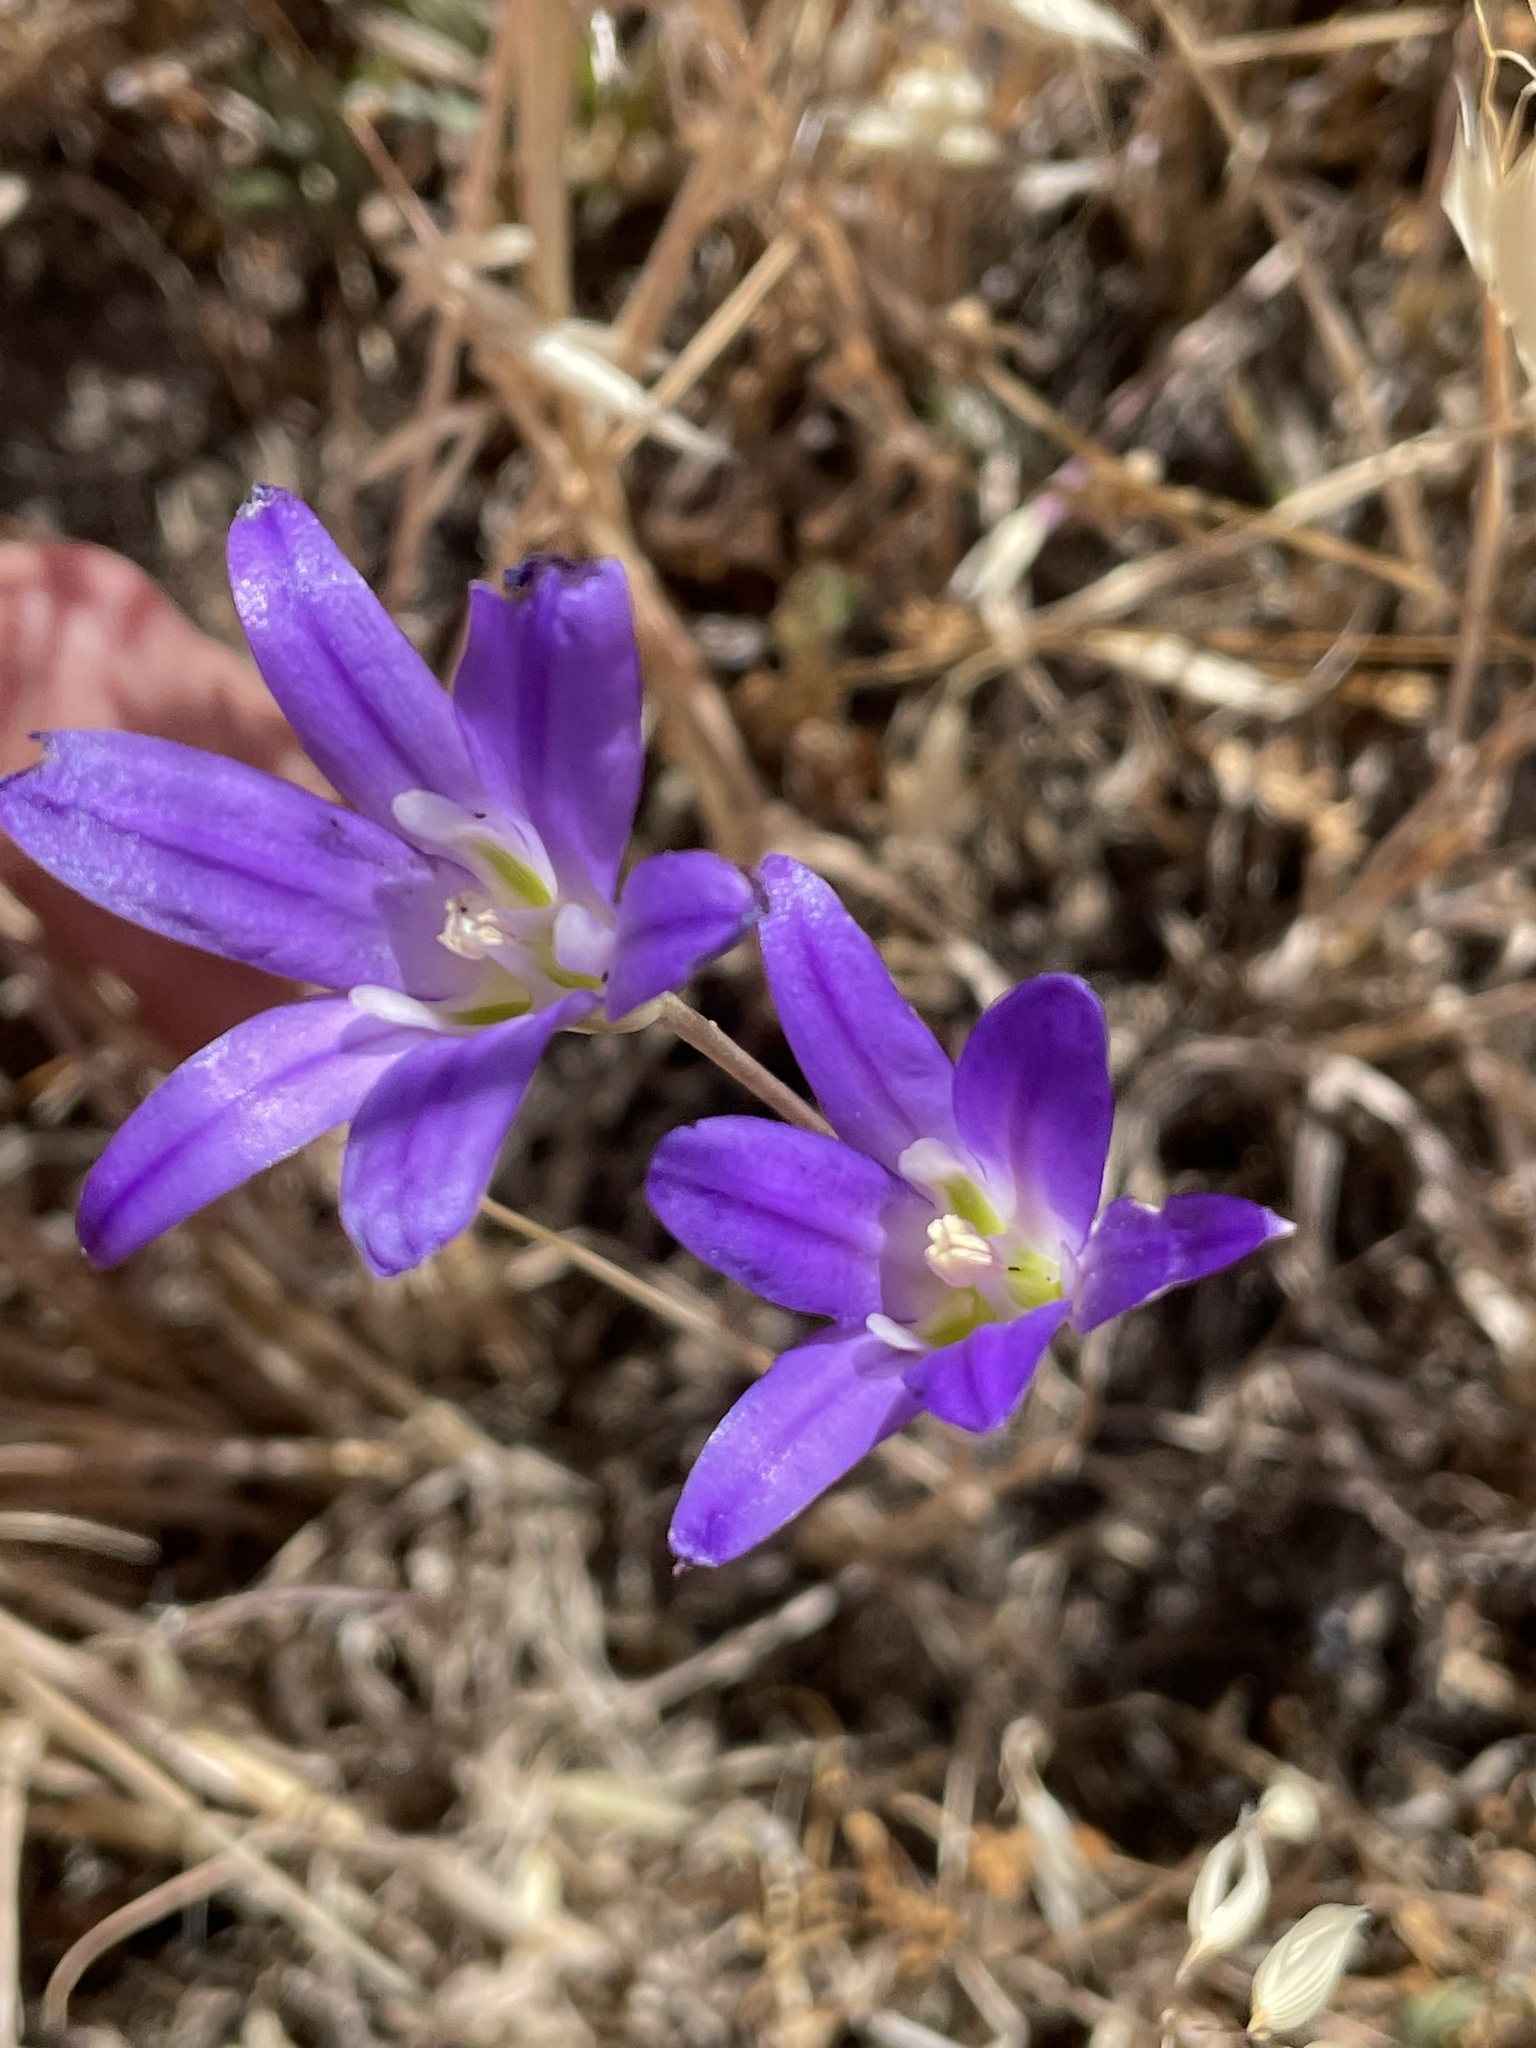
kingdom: Plantae
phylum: Tracheophyta
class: Liliopsida
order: Asparagales
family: Asparagaceae
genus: Brodiaea
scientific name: Brodiaea elegans
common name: Elegant cluster-lily
